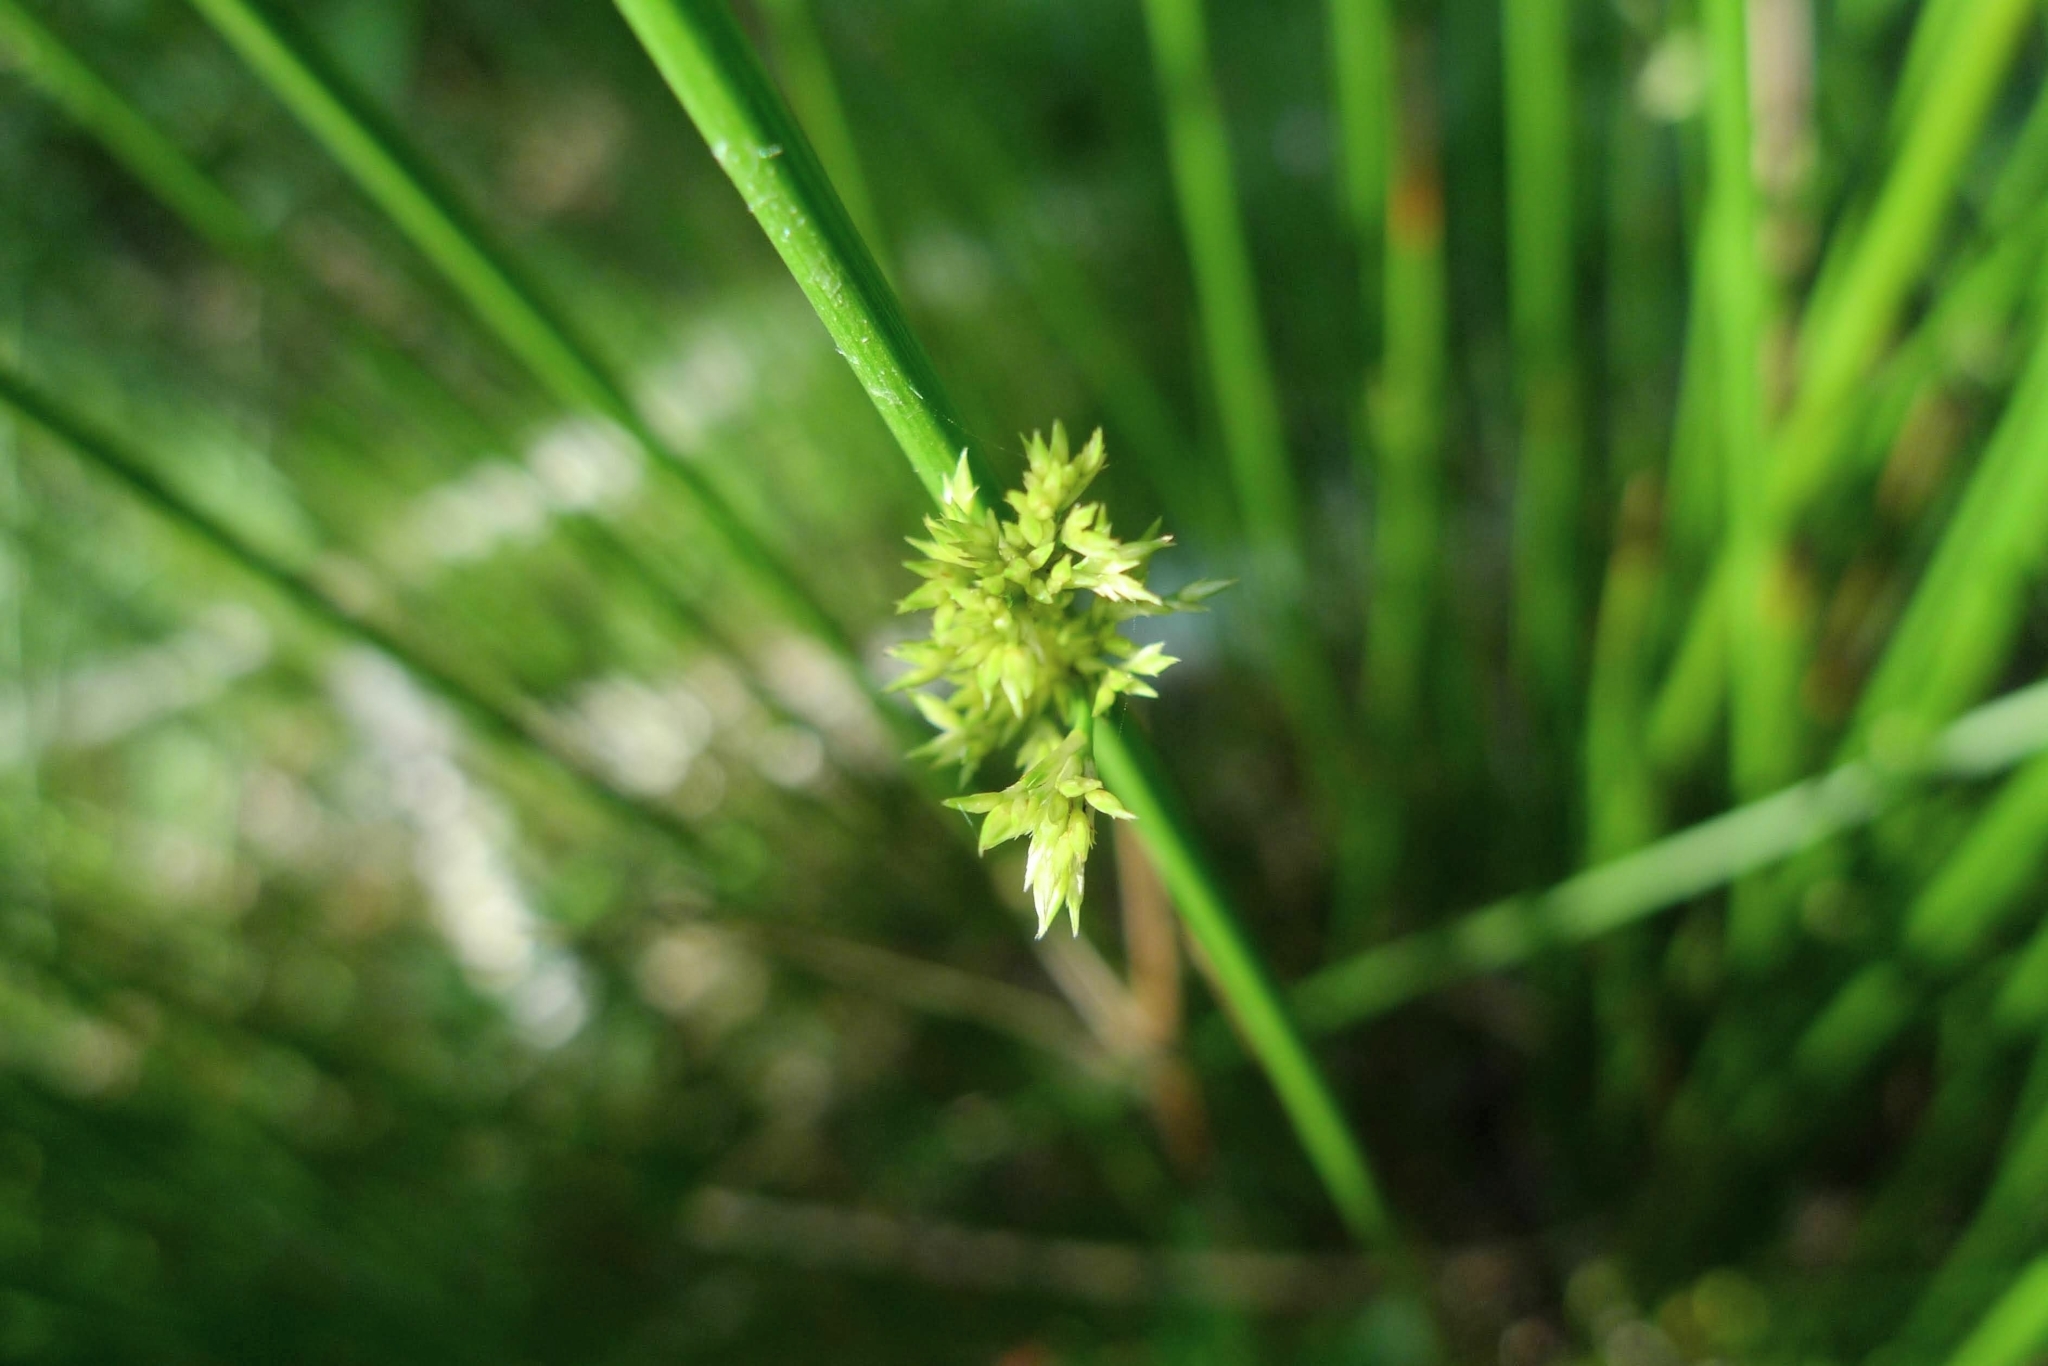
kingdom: Plantae
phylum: Tracheophyta
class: Liliopsida
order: Poales
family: Juncaceae
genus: Juncus
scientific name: Juncus effusus
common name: Soft rush
